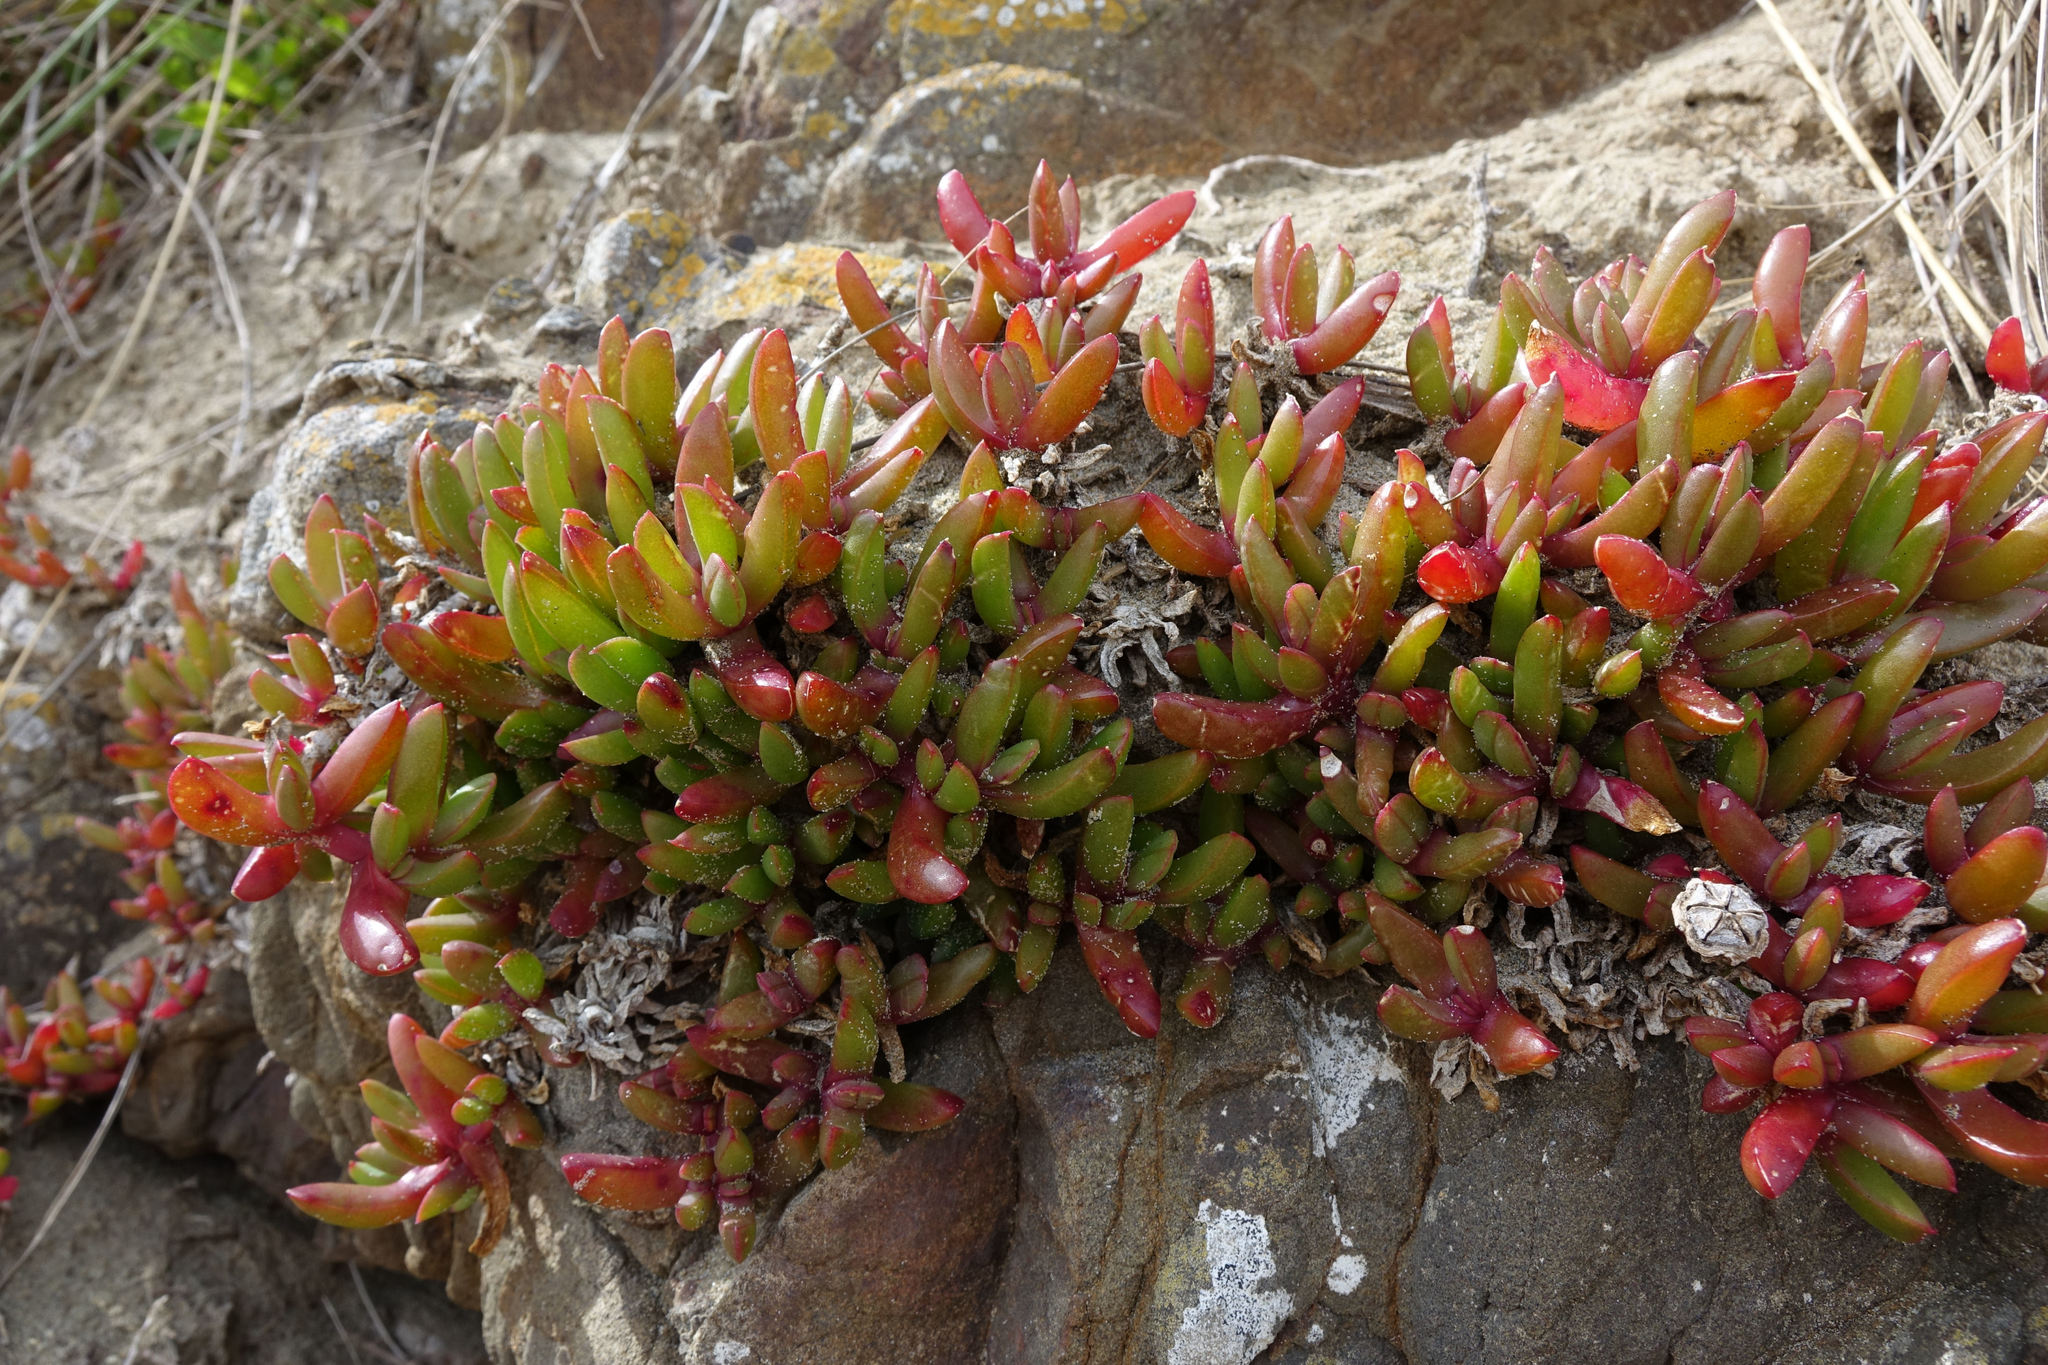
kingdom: Plantae
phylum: Tracheophyta
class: Magnoliopsida
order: Caryophyllales
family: Aizoaceae
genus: Disphyma
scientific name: Disphyma australe
